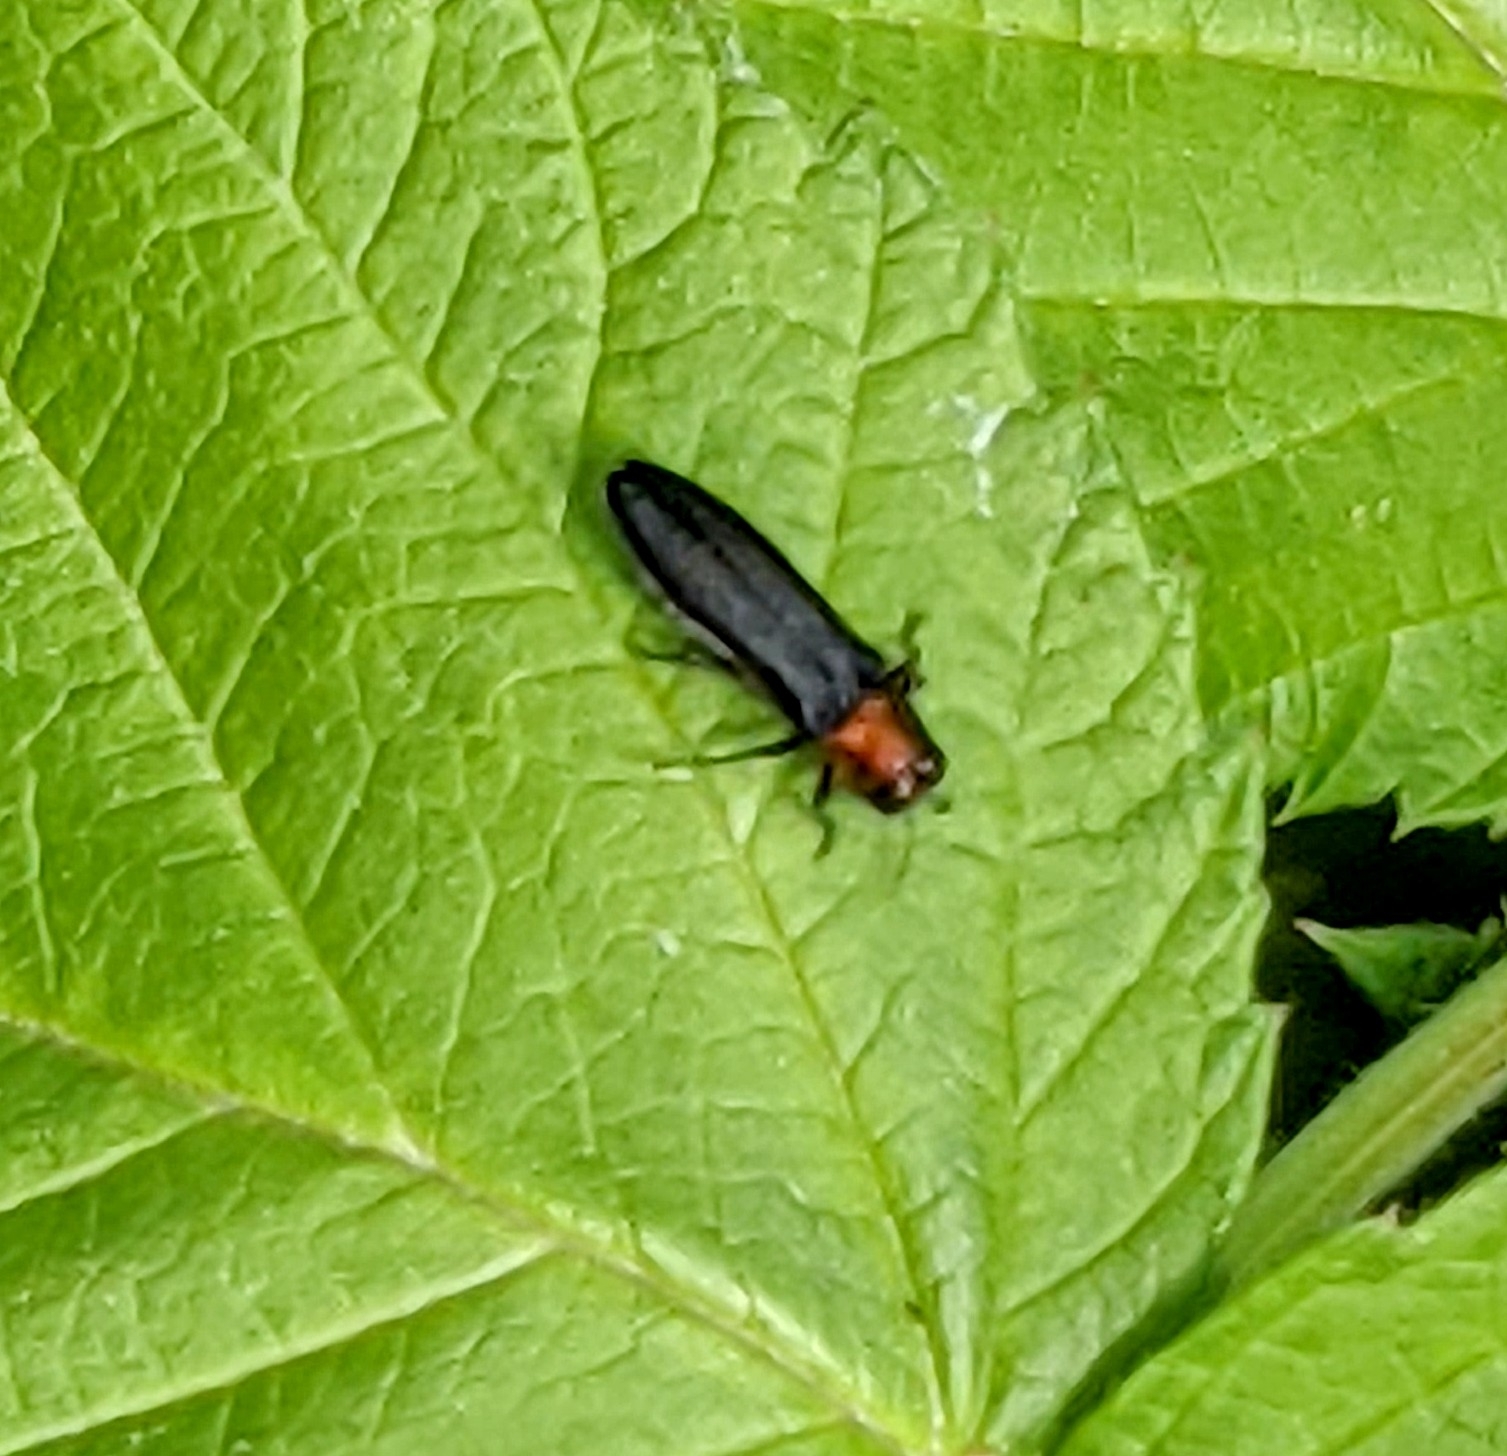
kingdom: Animalia
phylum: Arthropoda
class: Insecta
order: Coleoptera
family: Buprestidae
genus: Agrilus
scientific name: Agrilus ruficollis
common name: Red-necked cane borer beetle
